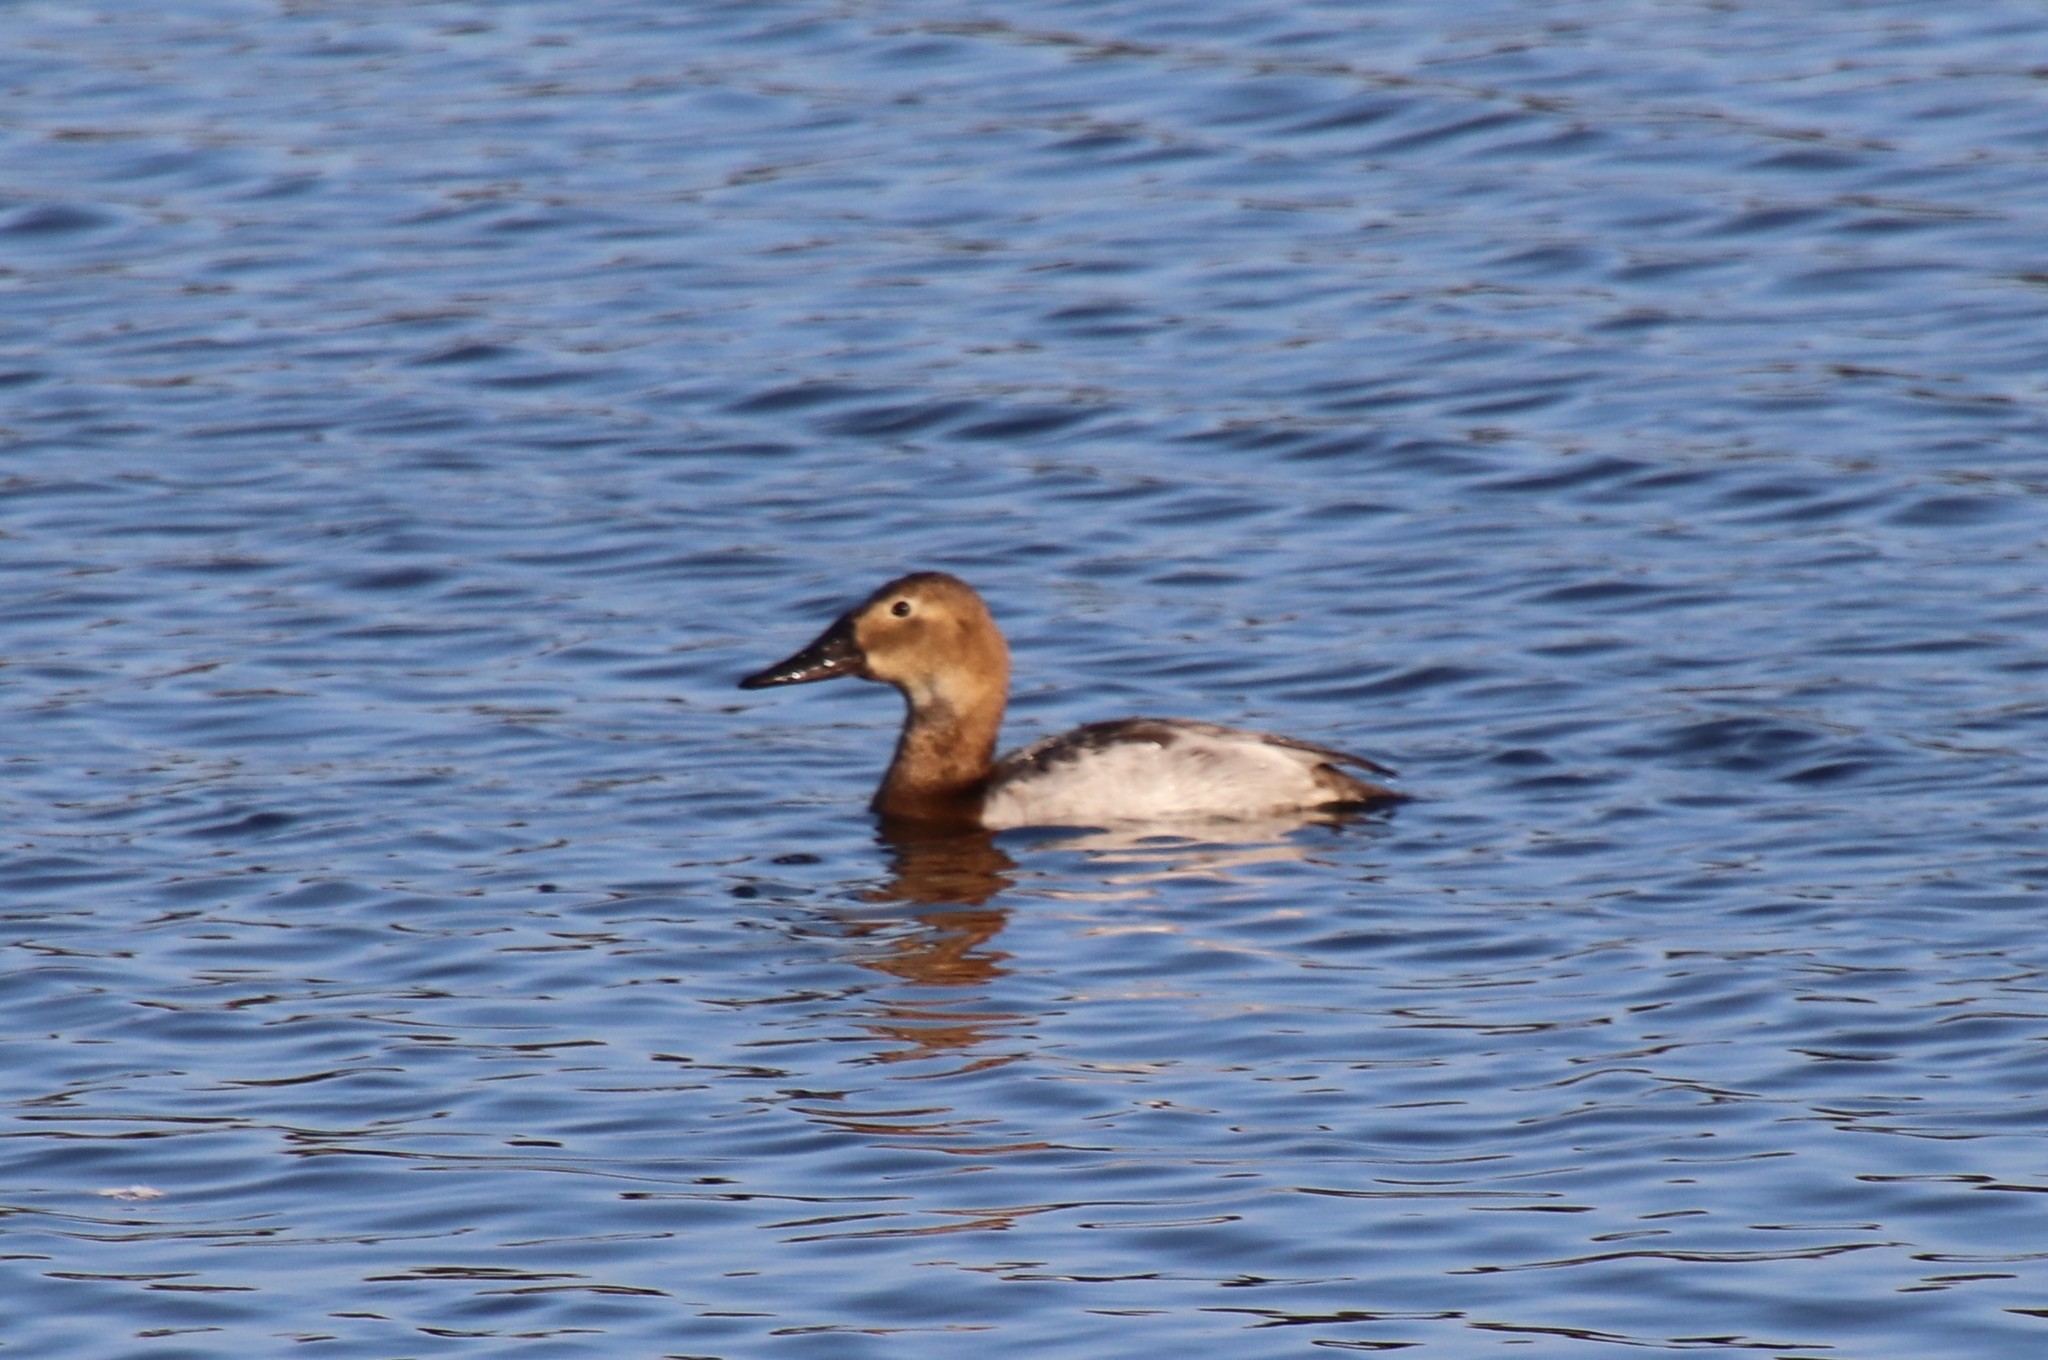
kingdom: Animalia
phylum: Chordata
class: Aves
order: Anseriformes
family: Anatidae
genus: Aythya
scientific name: Aythya valisineria
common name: Canvasback
